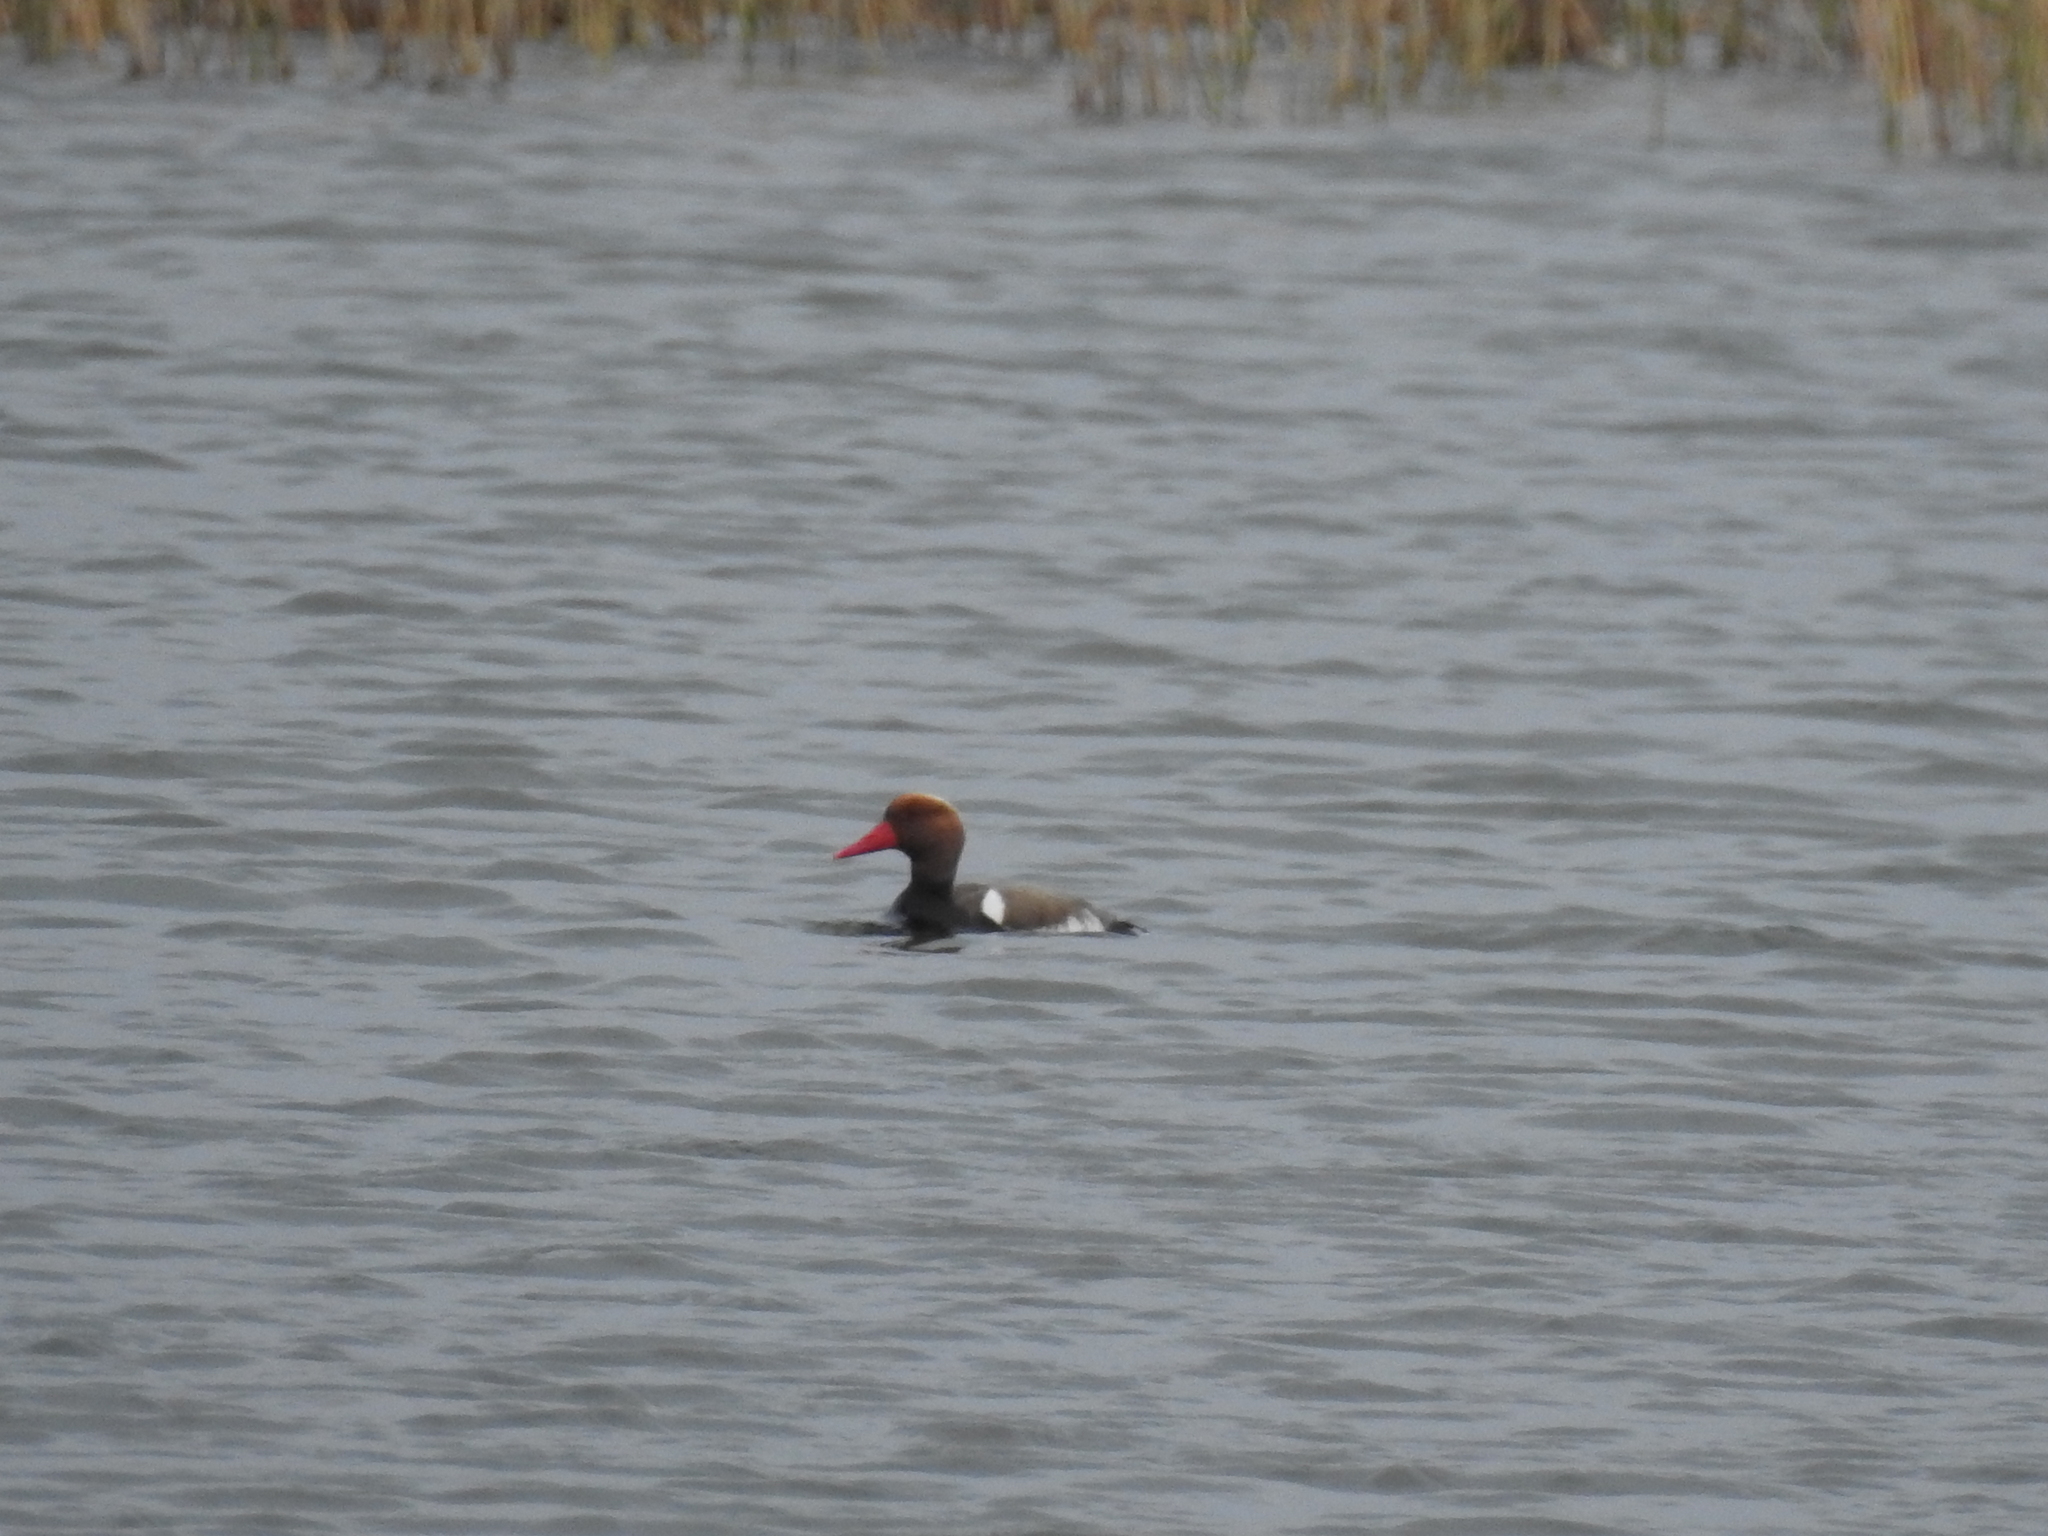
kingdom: Animalia
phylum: Chordata
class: Aves
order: Anseriformes
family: Anatidae
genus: Netta
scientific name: Netta rufina
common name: Red-crested pochard
